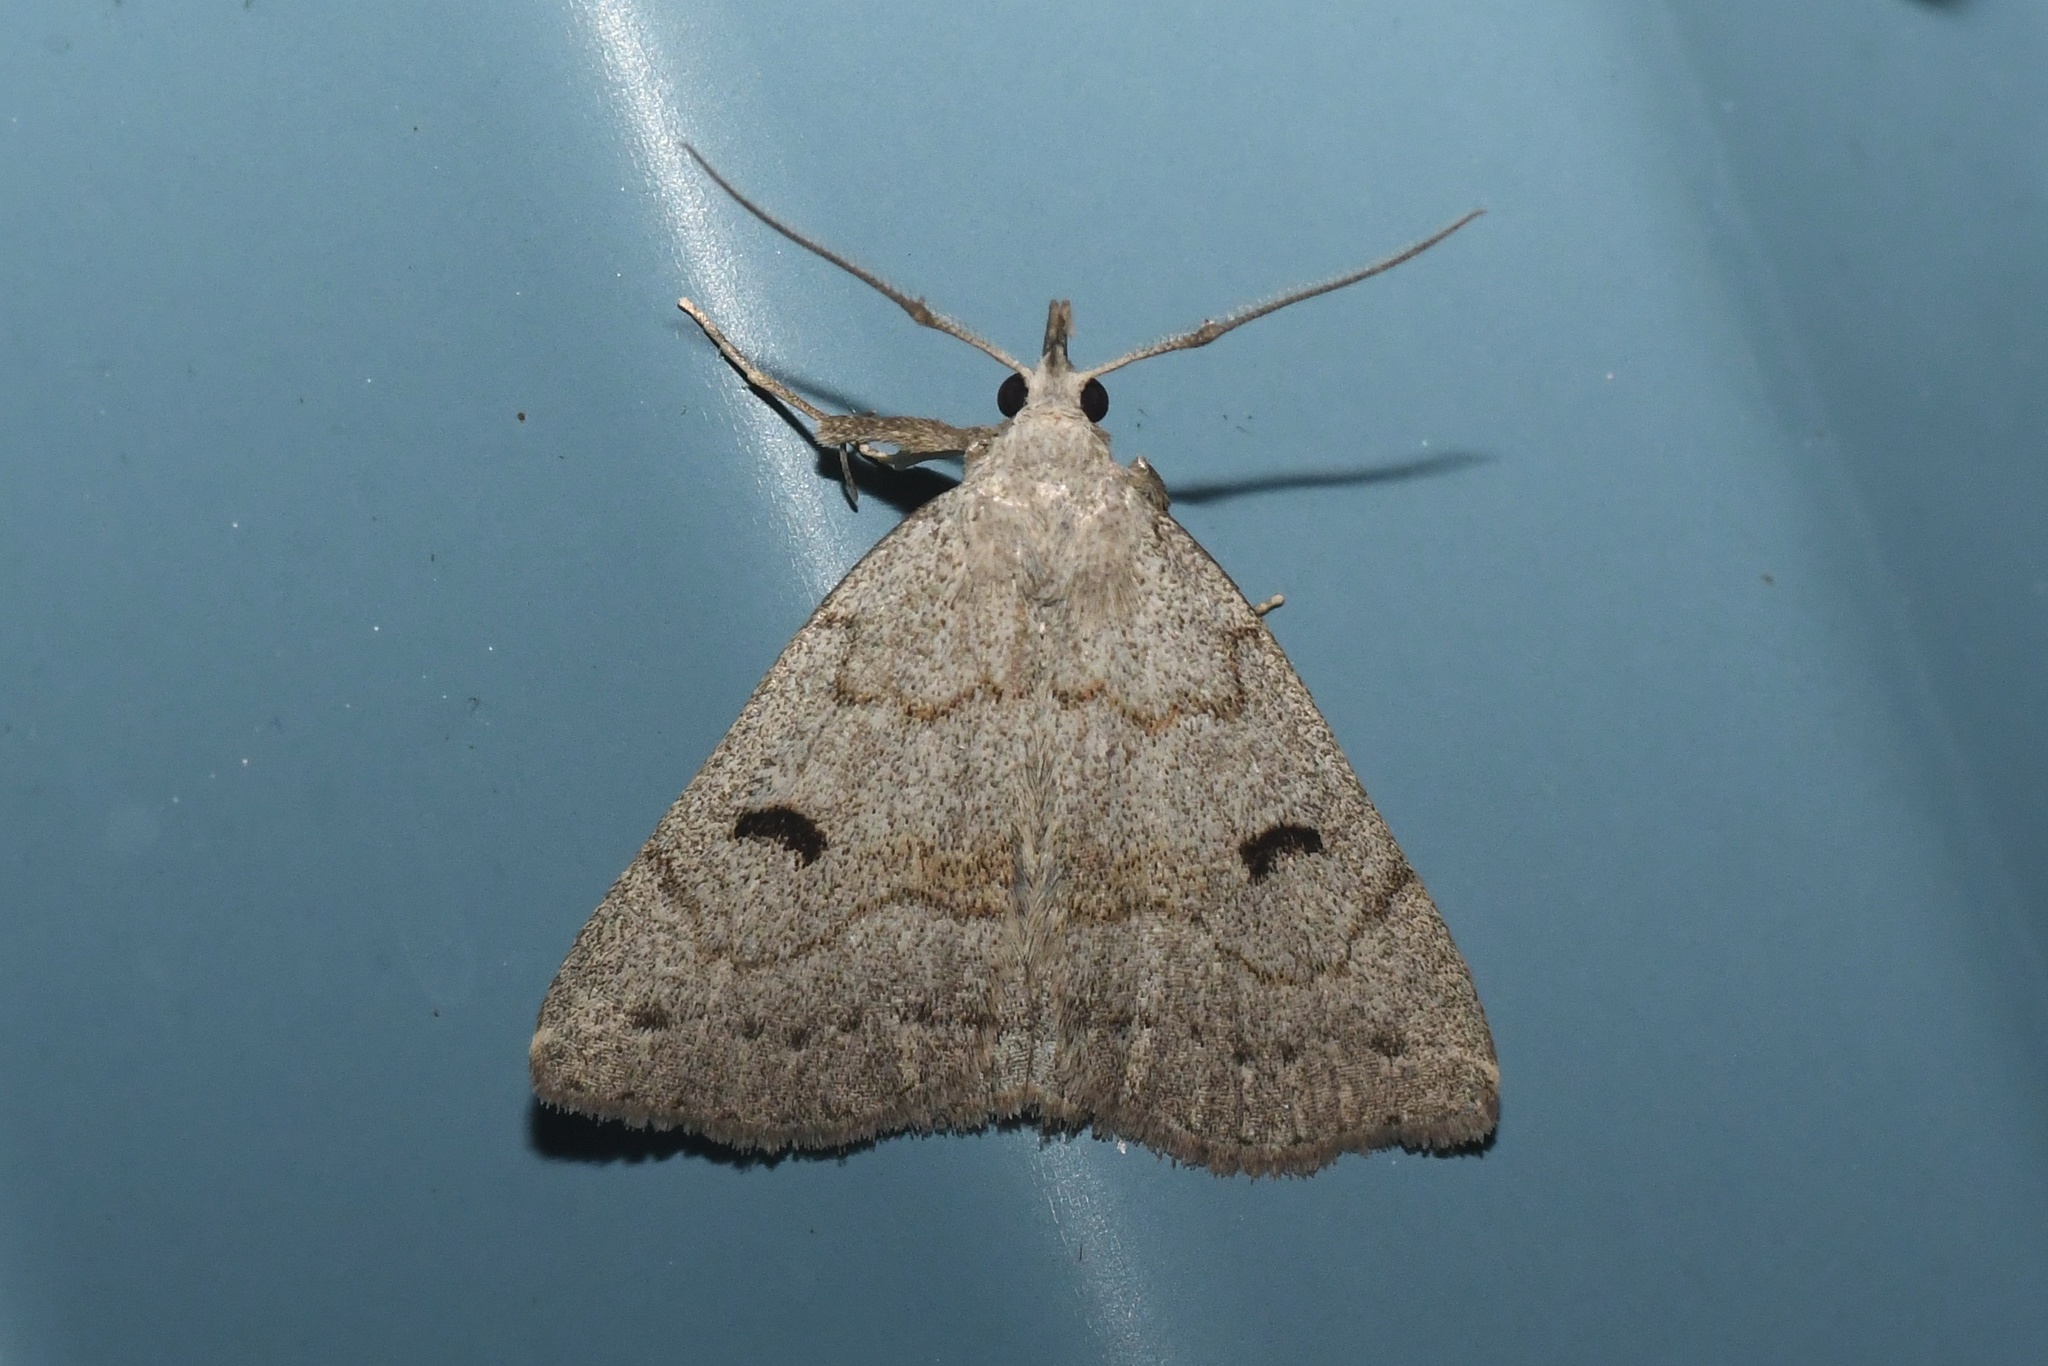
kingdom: Animalia
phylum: Arthropoda
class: Insecta
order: Lepidoptera
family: Erebidae
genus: Macrochilo
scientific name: Macrochilo morbidalis
